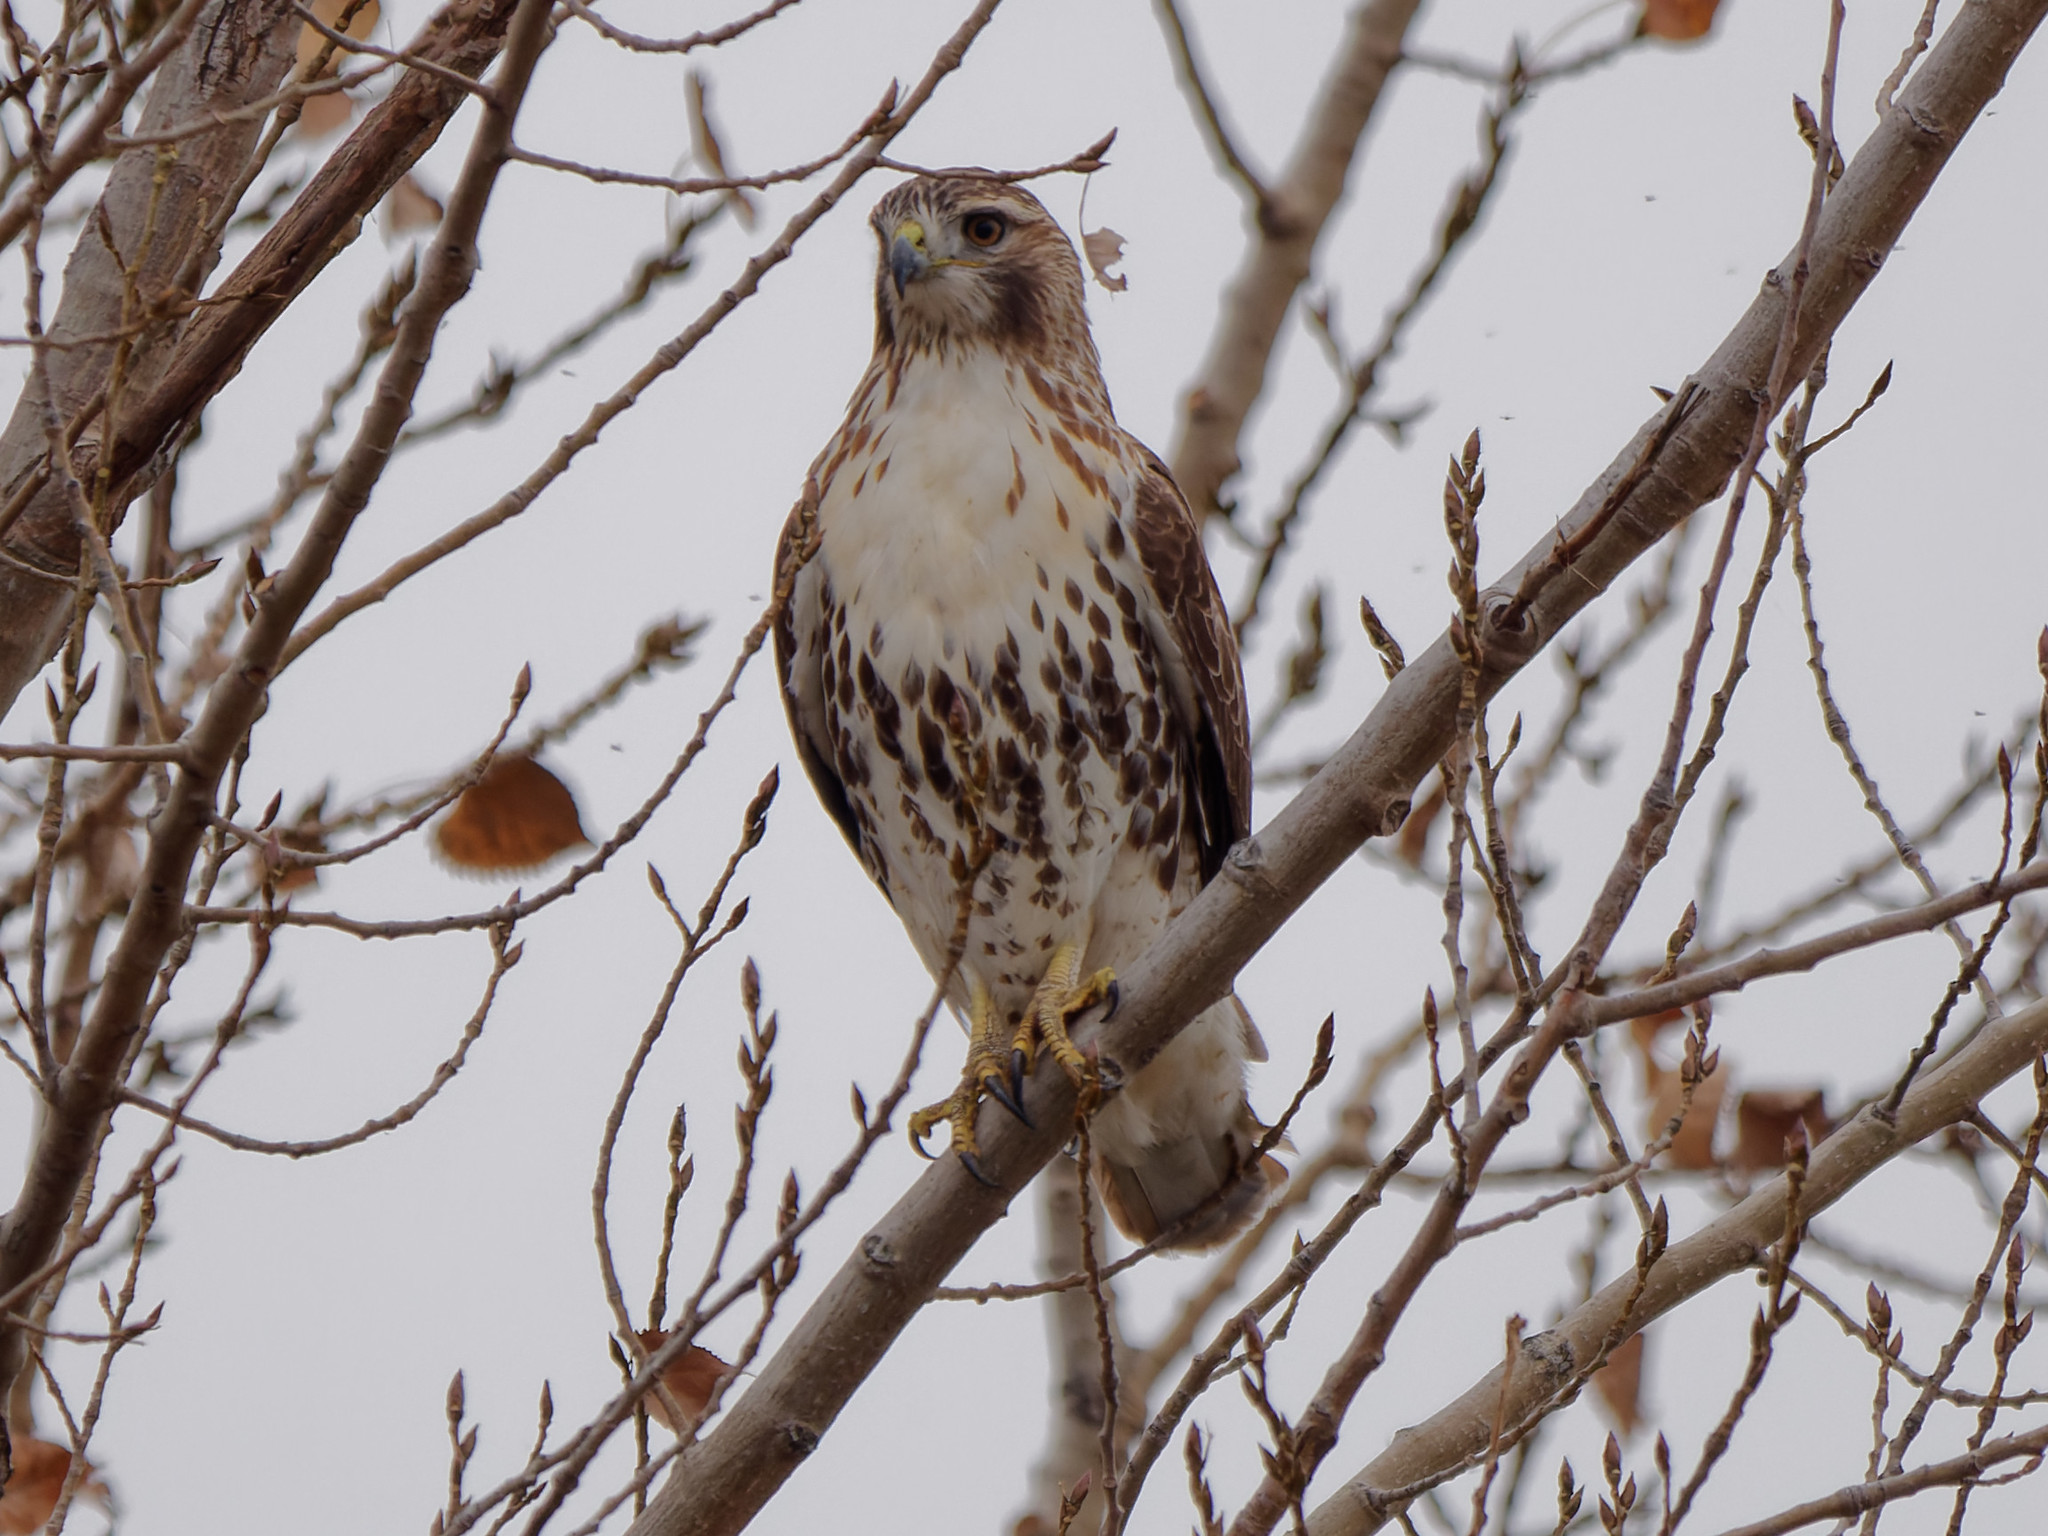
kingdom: Animalia
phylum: Chordata
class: Aves
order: Accipitriformes
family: Accipitridae
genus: Buteo
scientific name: Buteo jamaicensis
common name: Red-tailed hawk
